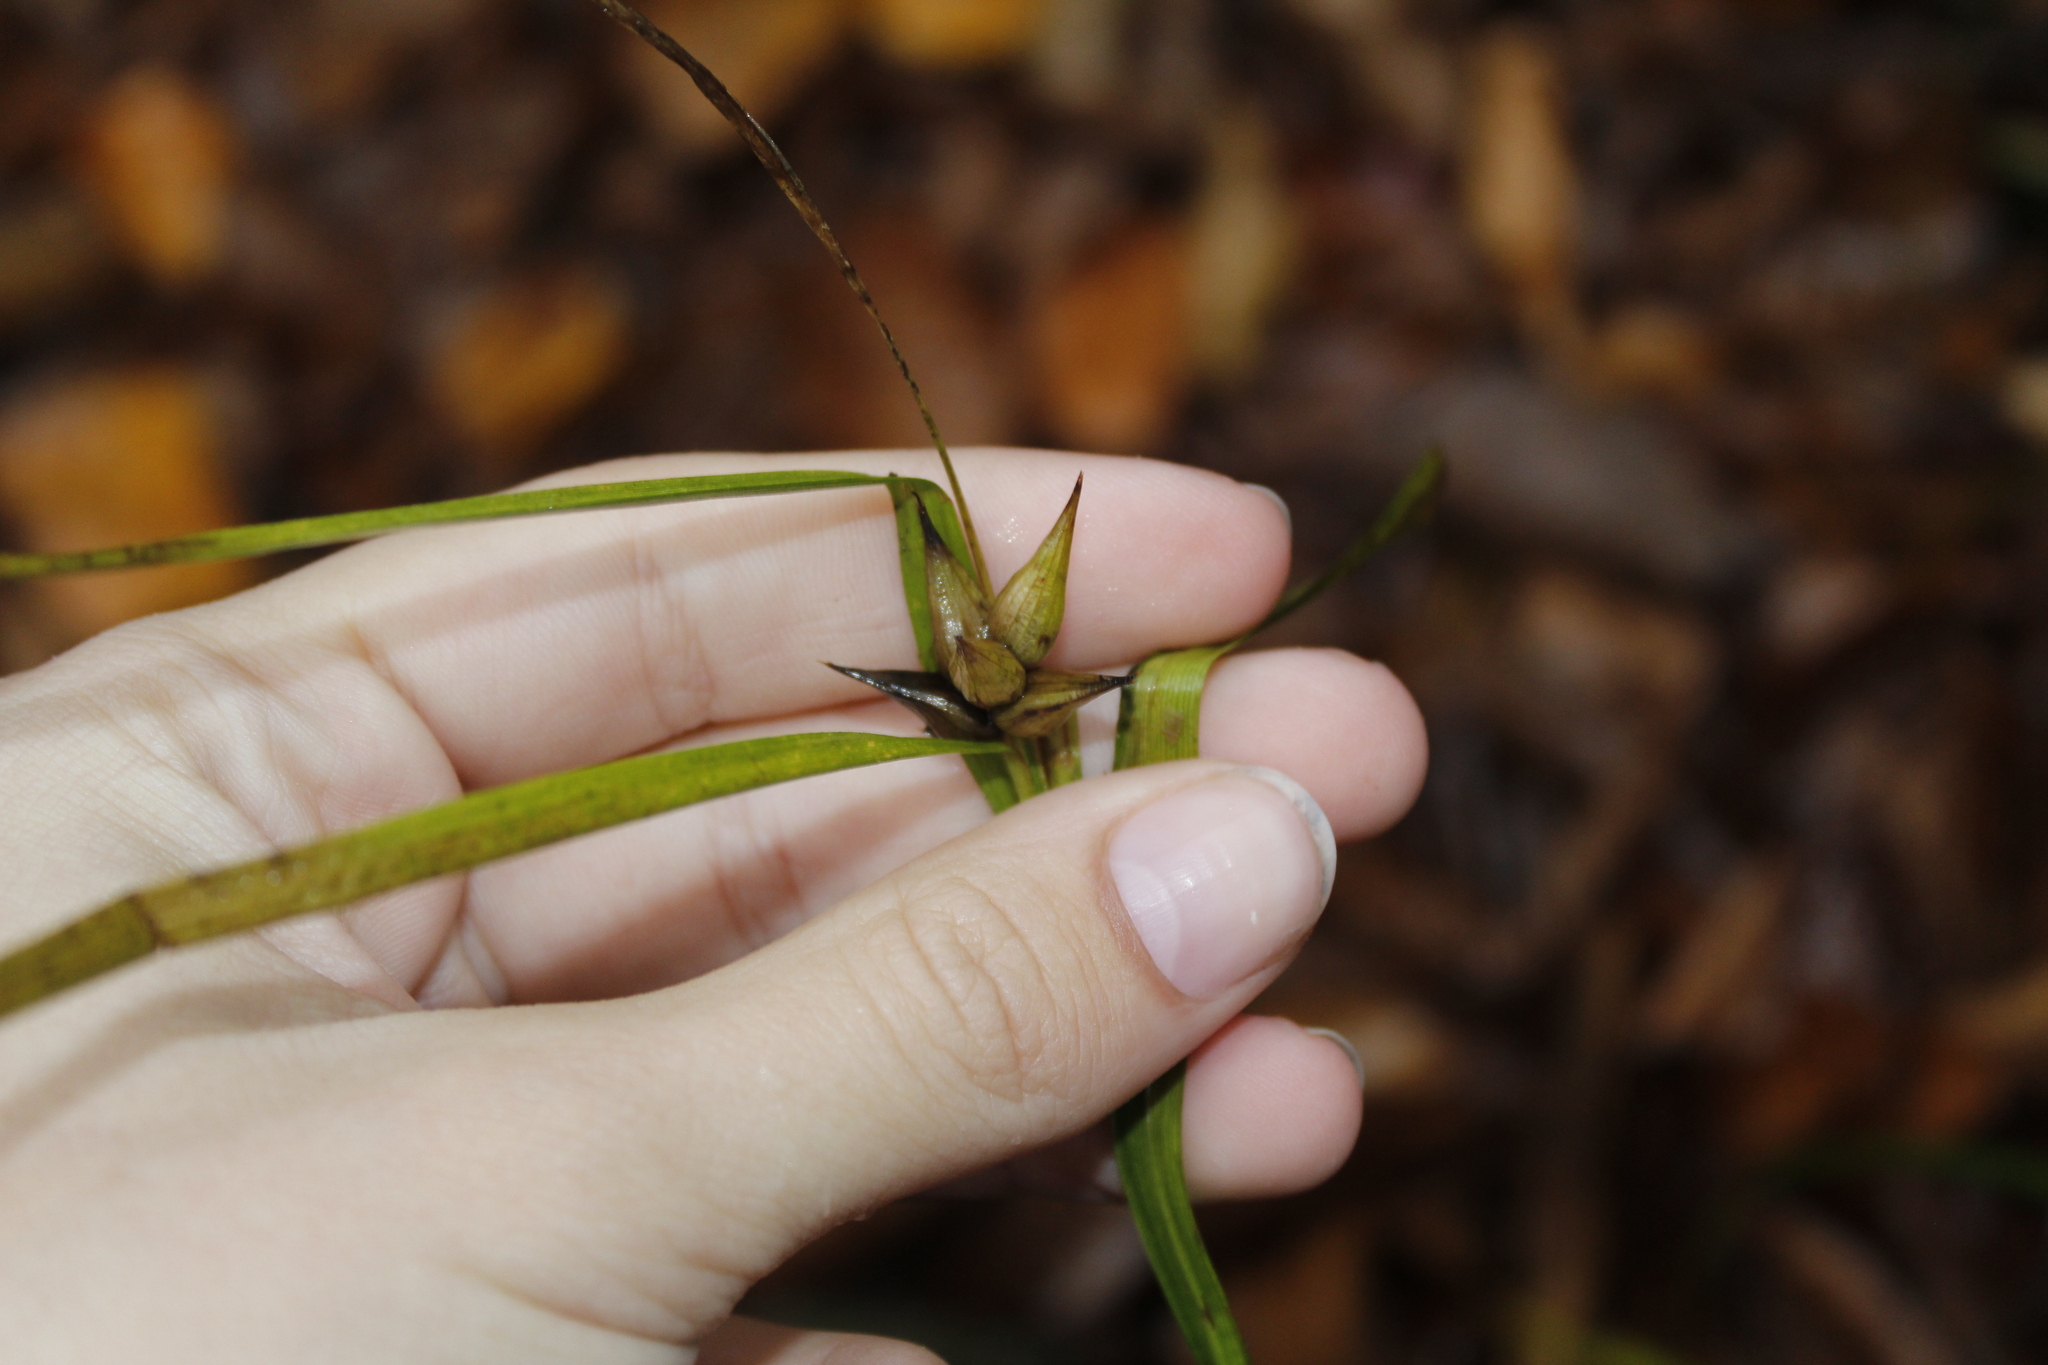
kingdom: Plantae
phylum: Tracheophyta
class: Liliopsida
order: Poales
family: Cyperaceae
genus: Carex
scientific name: Carex intumescens
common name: Greater bladder sedge
